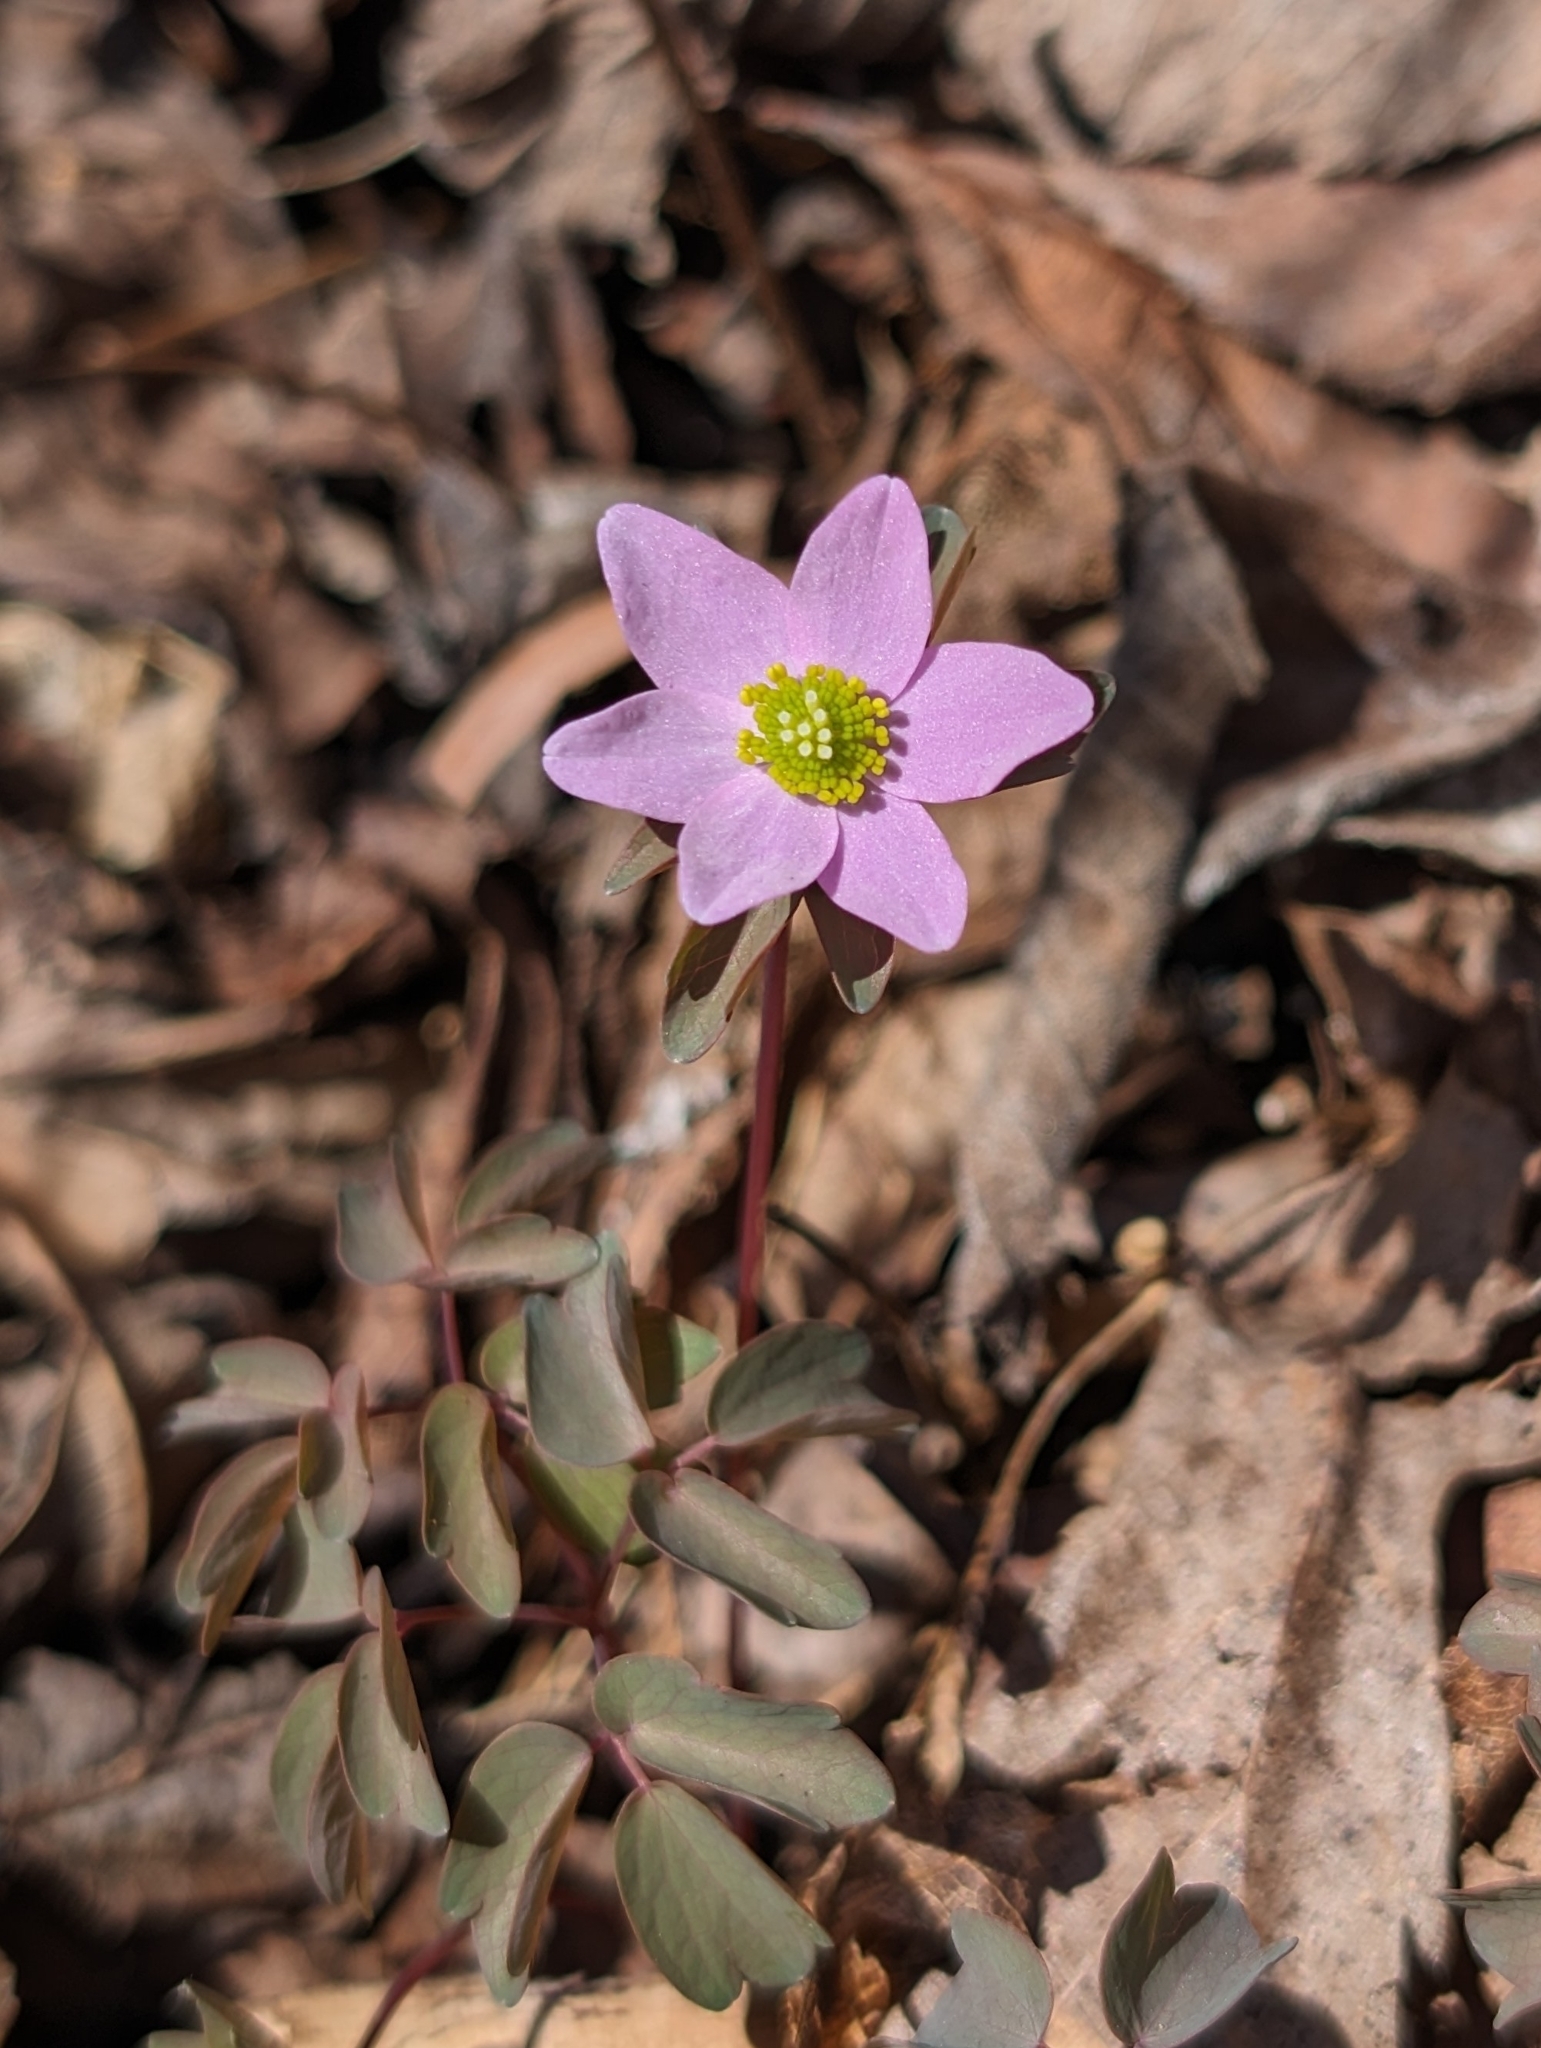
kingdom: Plantae
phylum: Tracheophyta
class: Magnoliopsida
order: Ranunculales
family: Ranunculaceae
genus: Thalictrum
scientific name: Thalictrum thalictroides
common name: Rue-anemone
